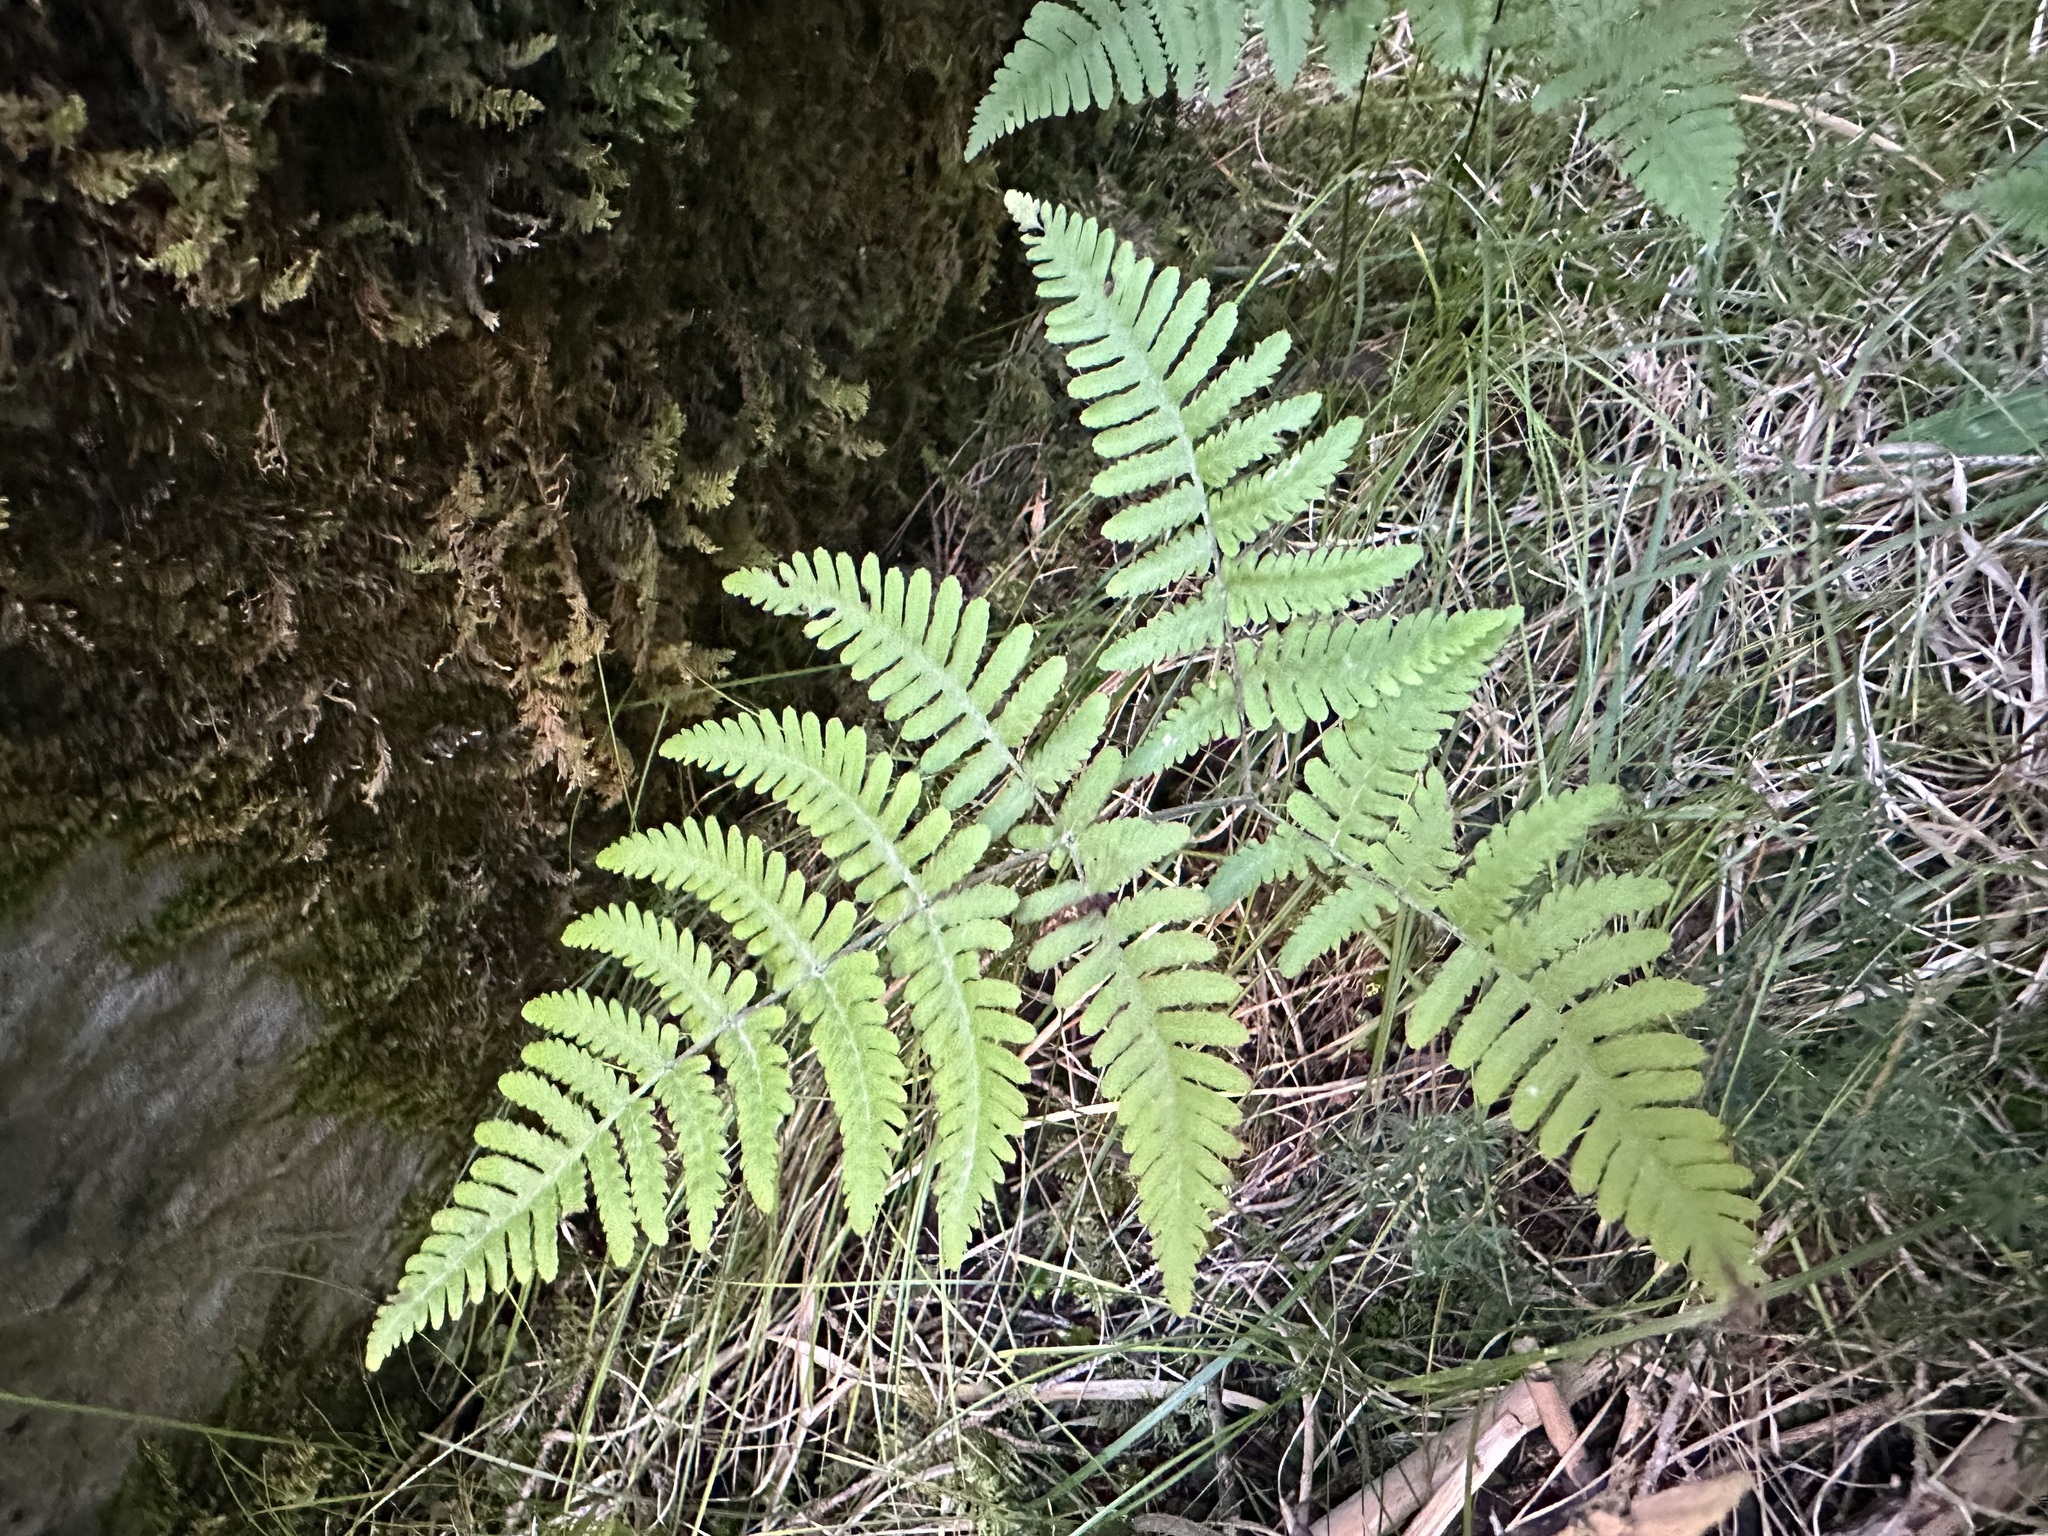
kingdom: Plantae
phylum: Tracheophyta
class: Polypodiopsida
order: Polypodiales
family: Cystopteridaceae
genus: Gymnocarpium
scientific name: Gymnocarpium robertianum
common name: Limestone fern
